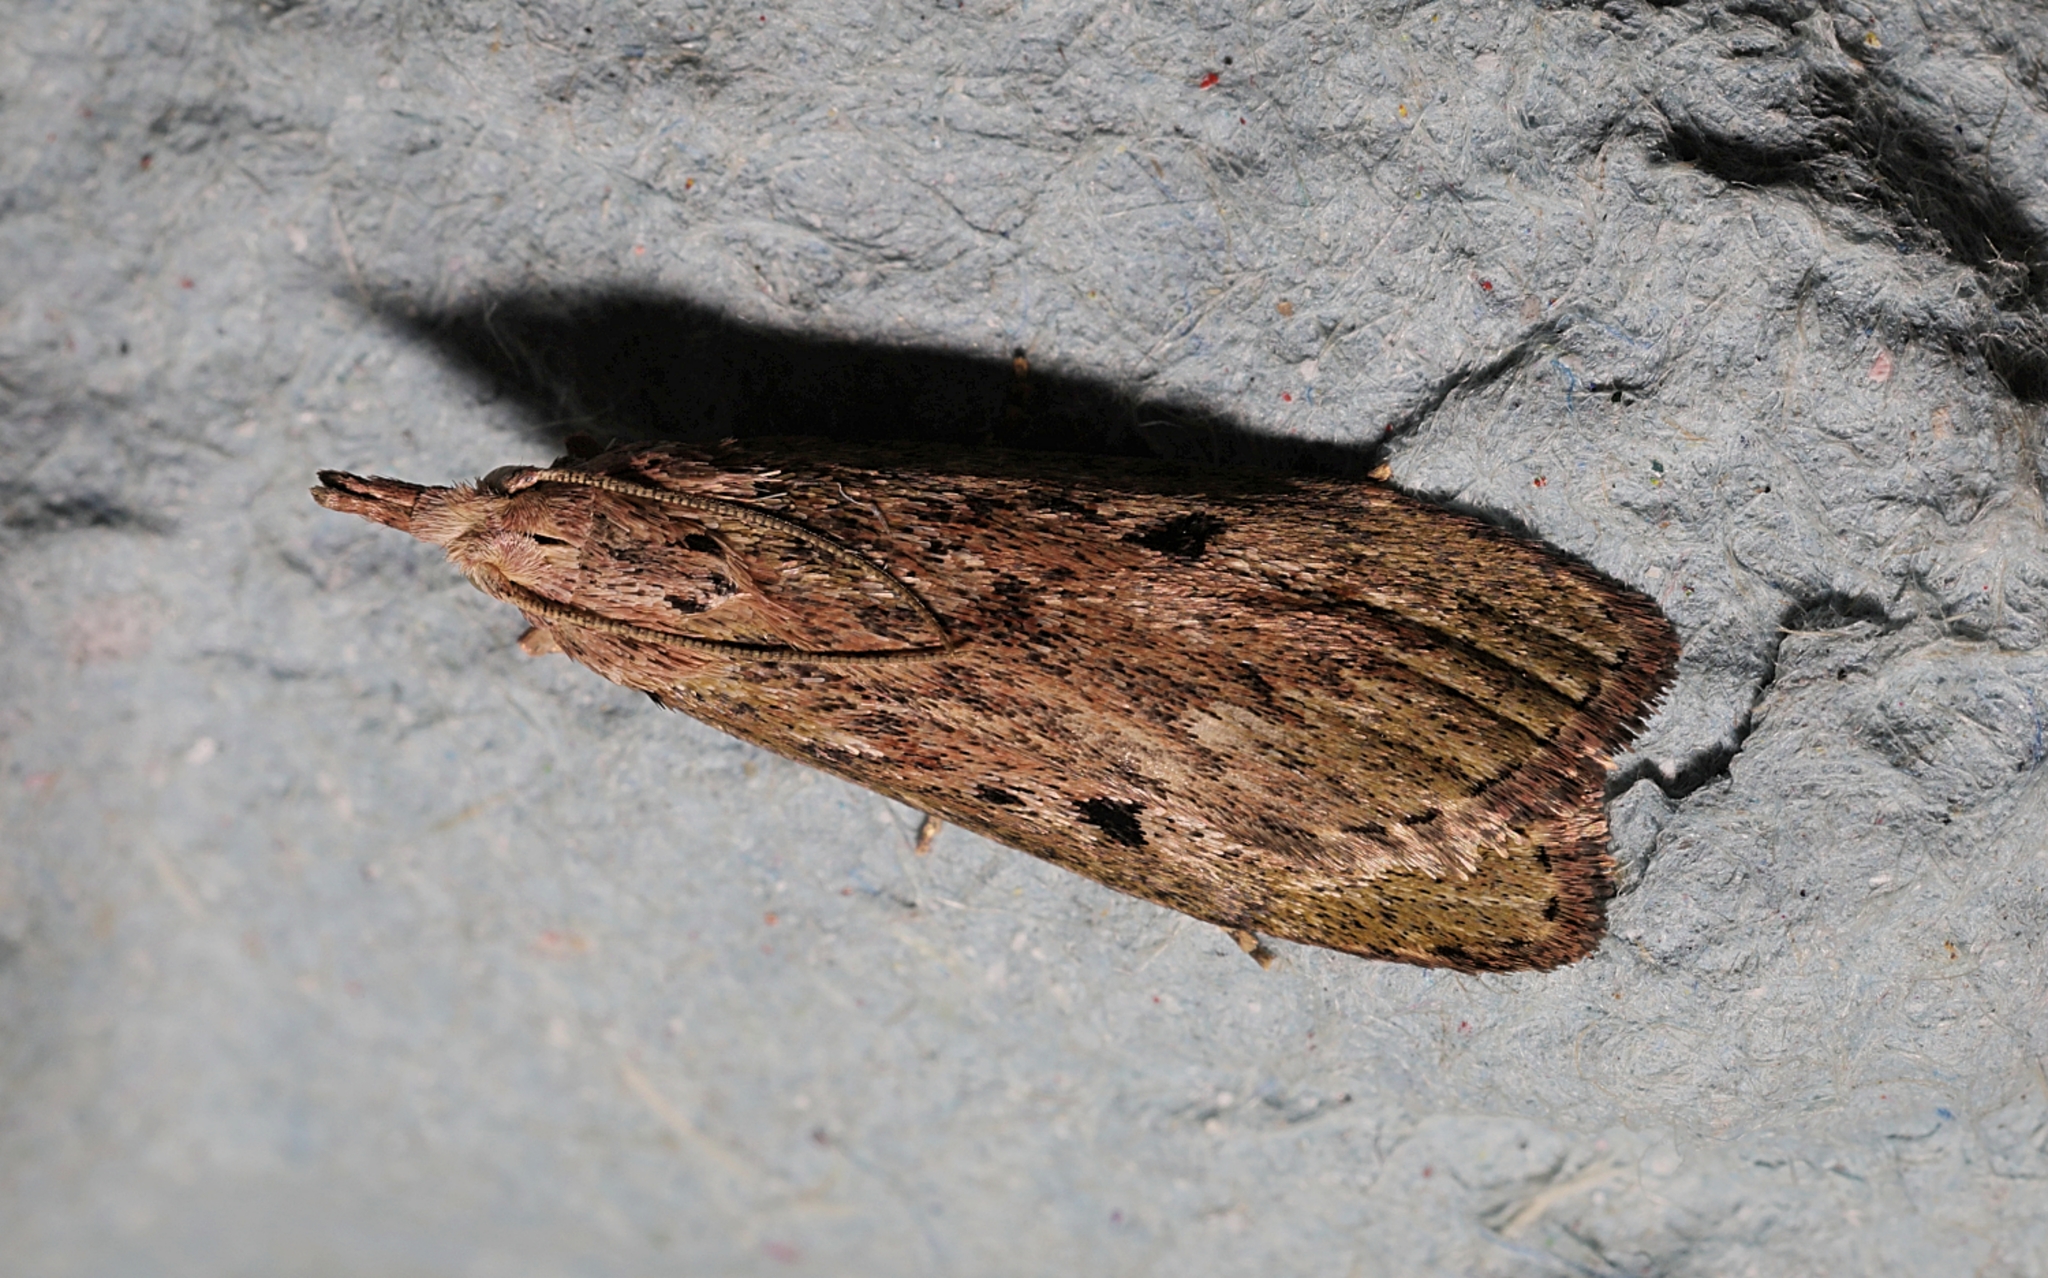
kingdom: Animalia
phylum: Arthropoda
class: Insecta
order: Lepidoptera
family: Pyralidae
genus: Aphomia
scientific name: Aphomia sociella
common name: Bee moth
